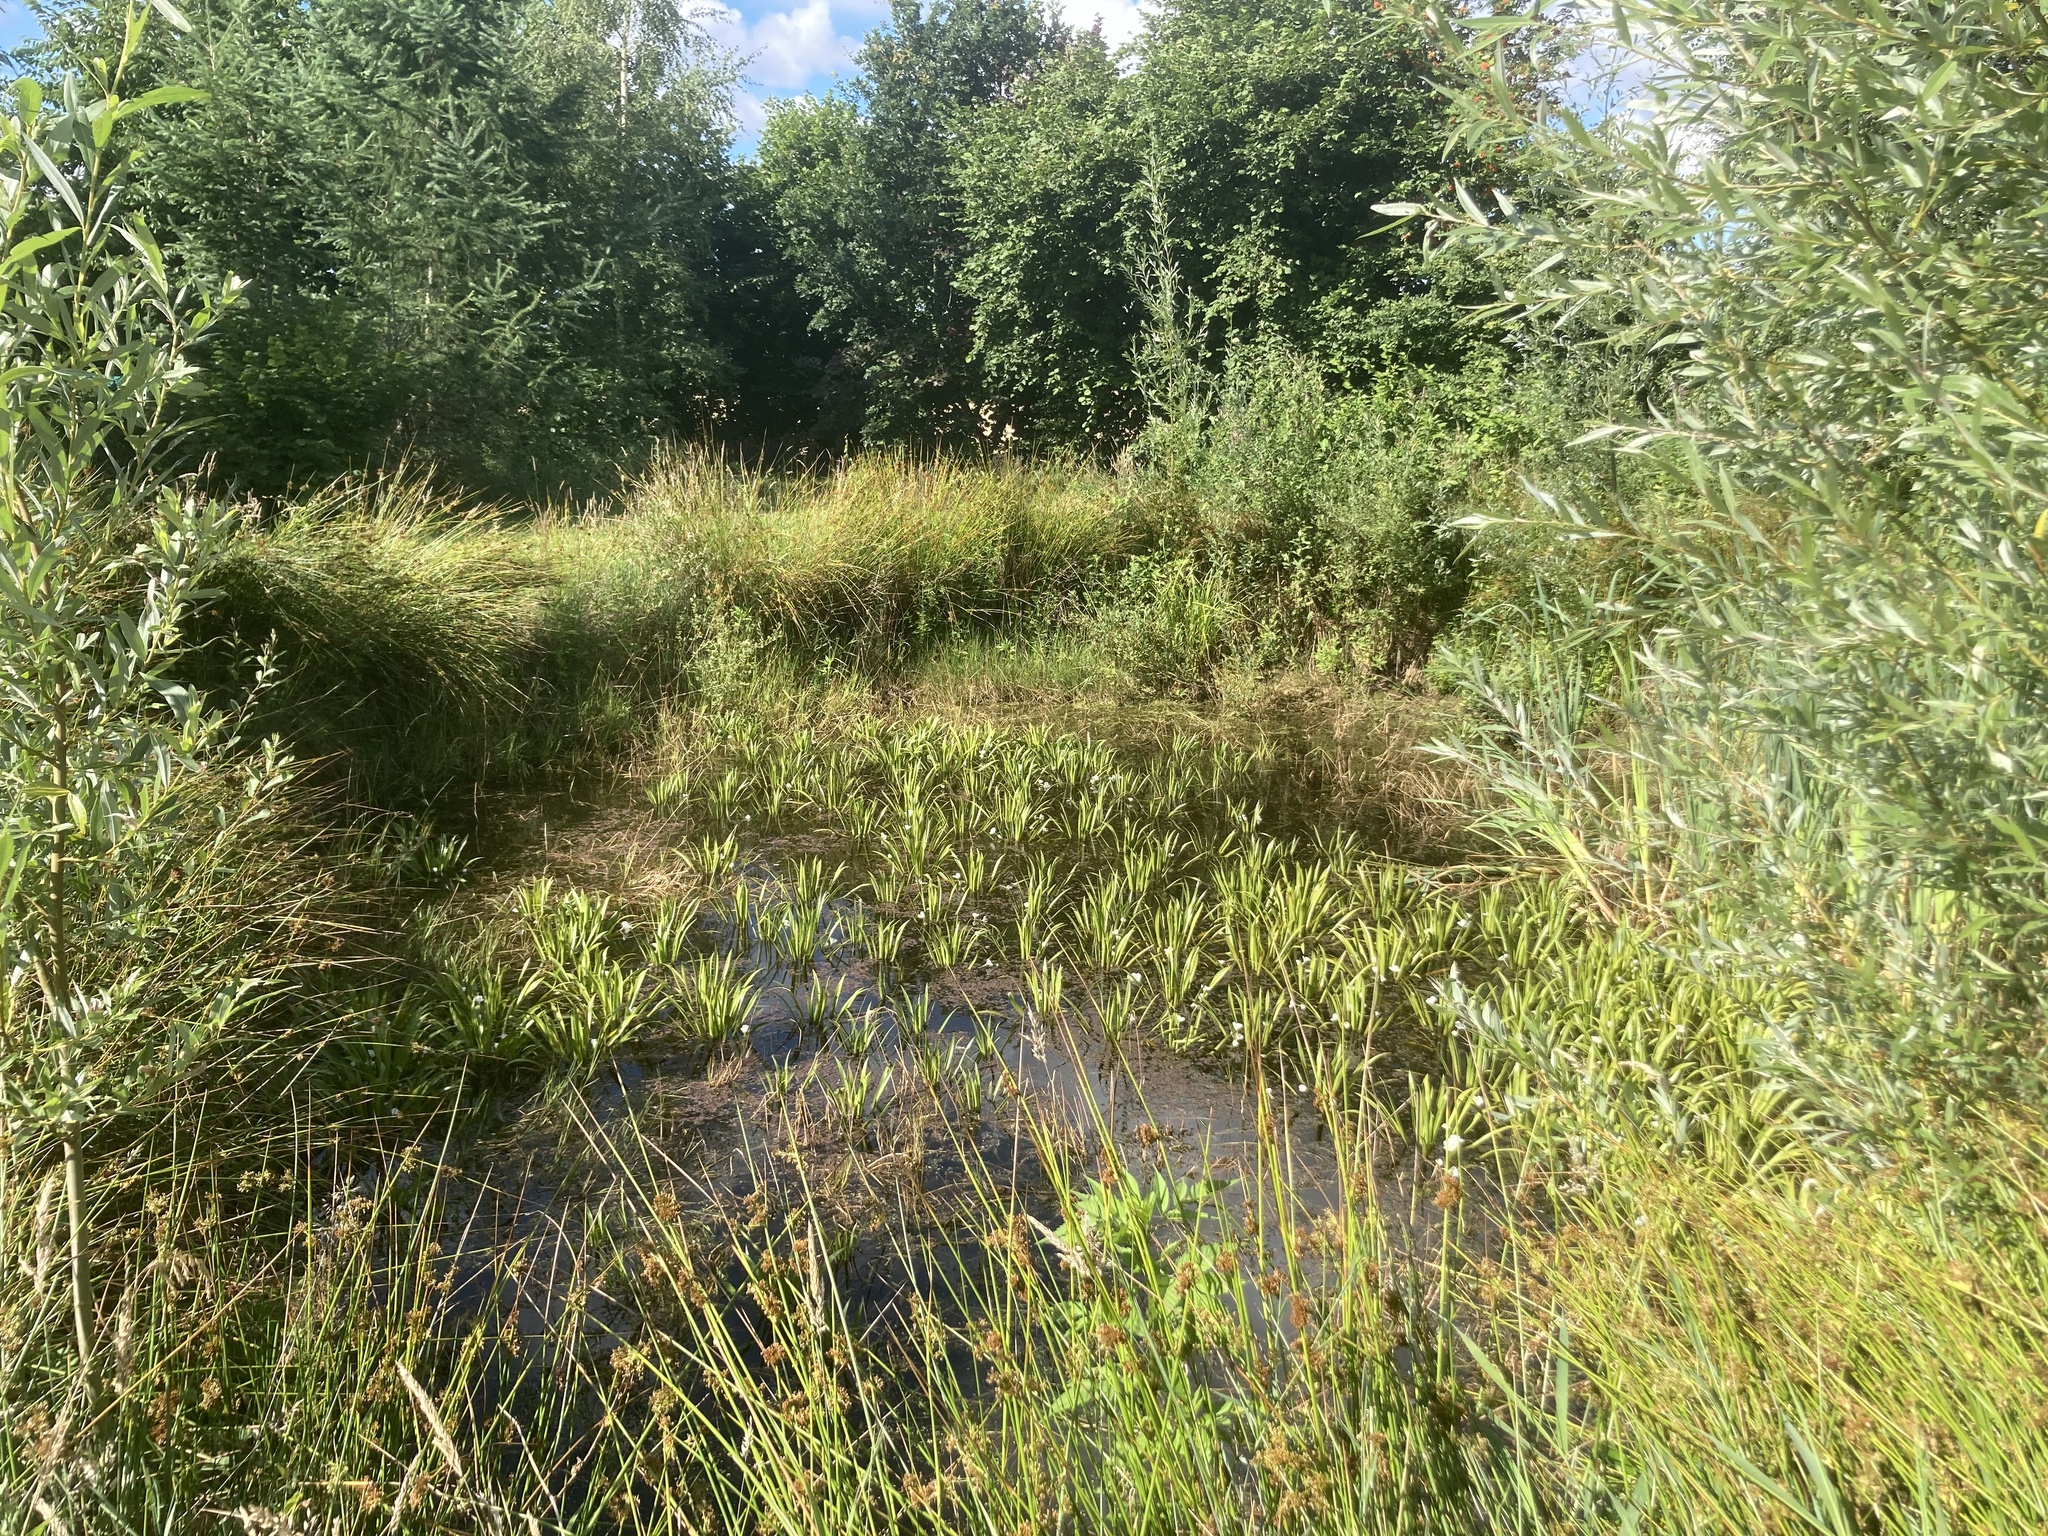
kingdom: Plantae
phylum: Tracheophyta
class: Liliopsida
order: Alismatales
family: Hydrocharitaceae
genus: Stratiotes
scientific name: Stratiotes aloides
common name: Water-soldier
